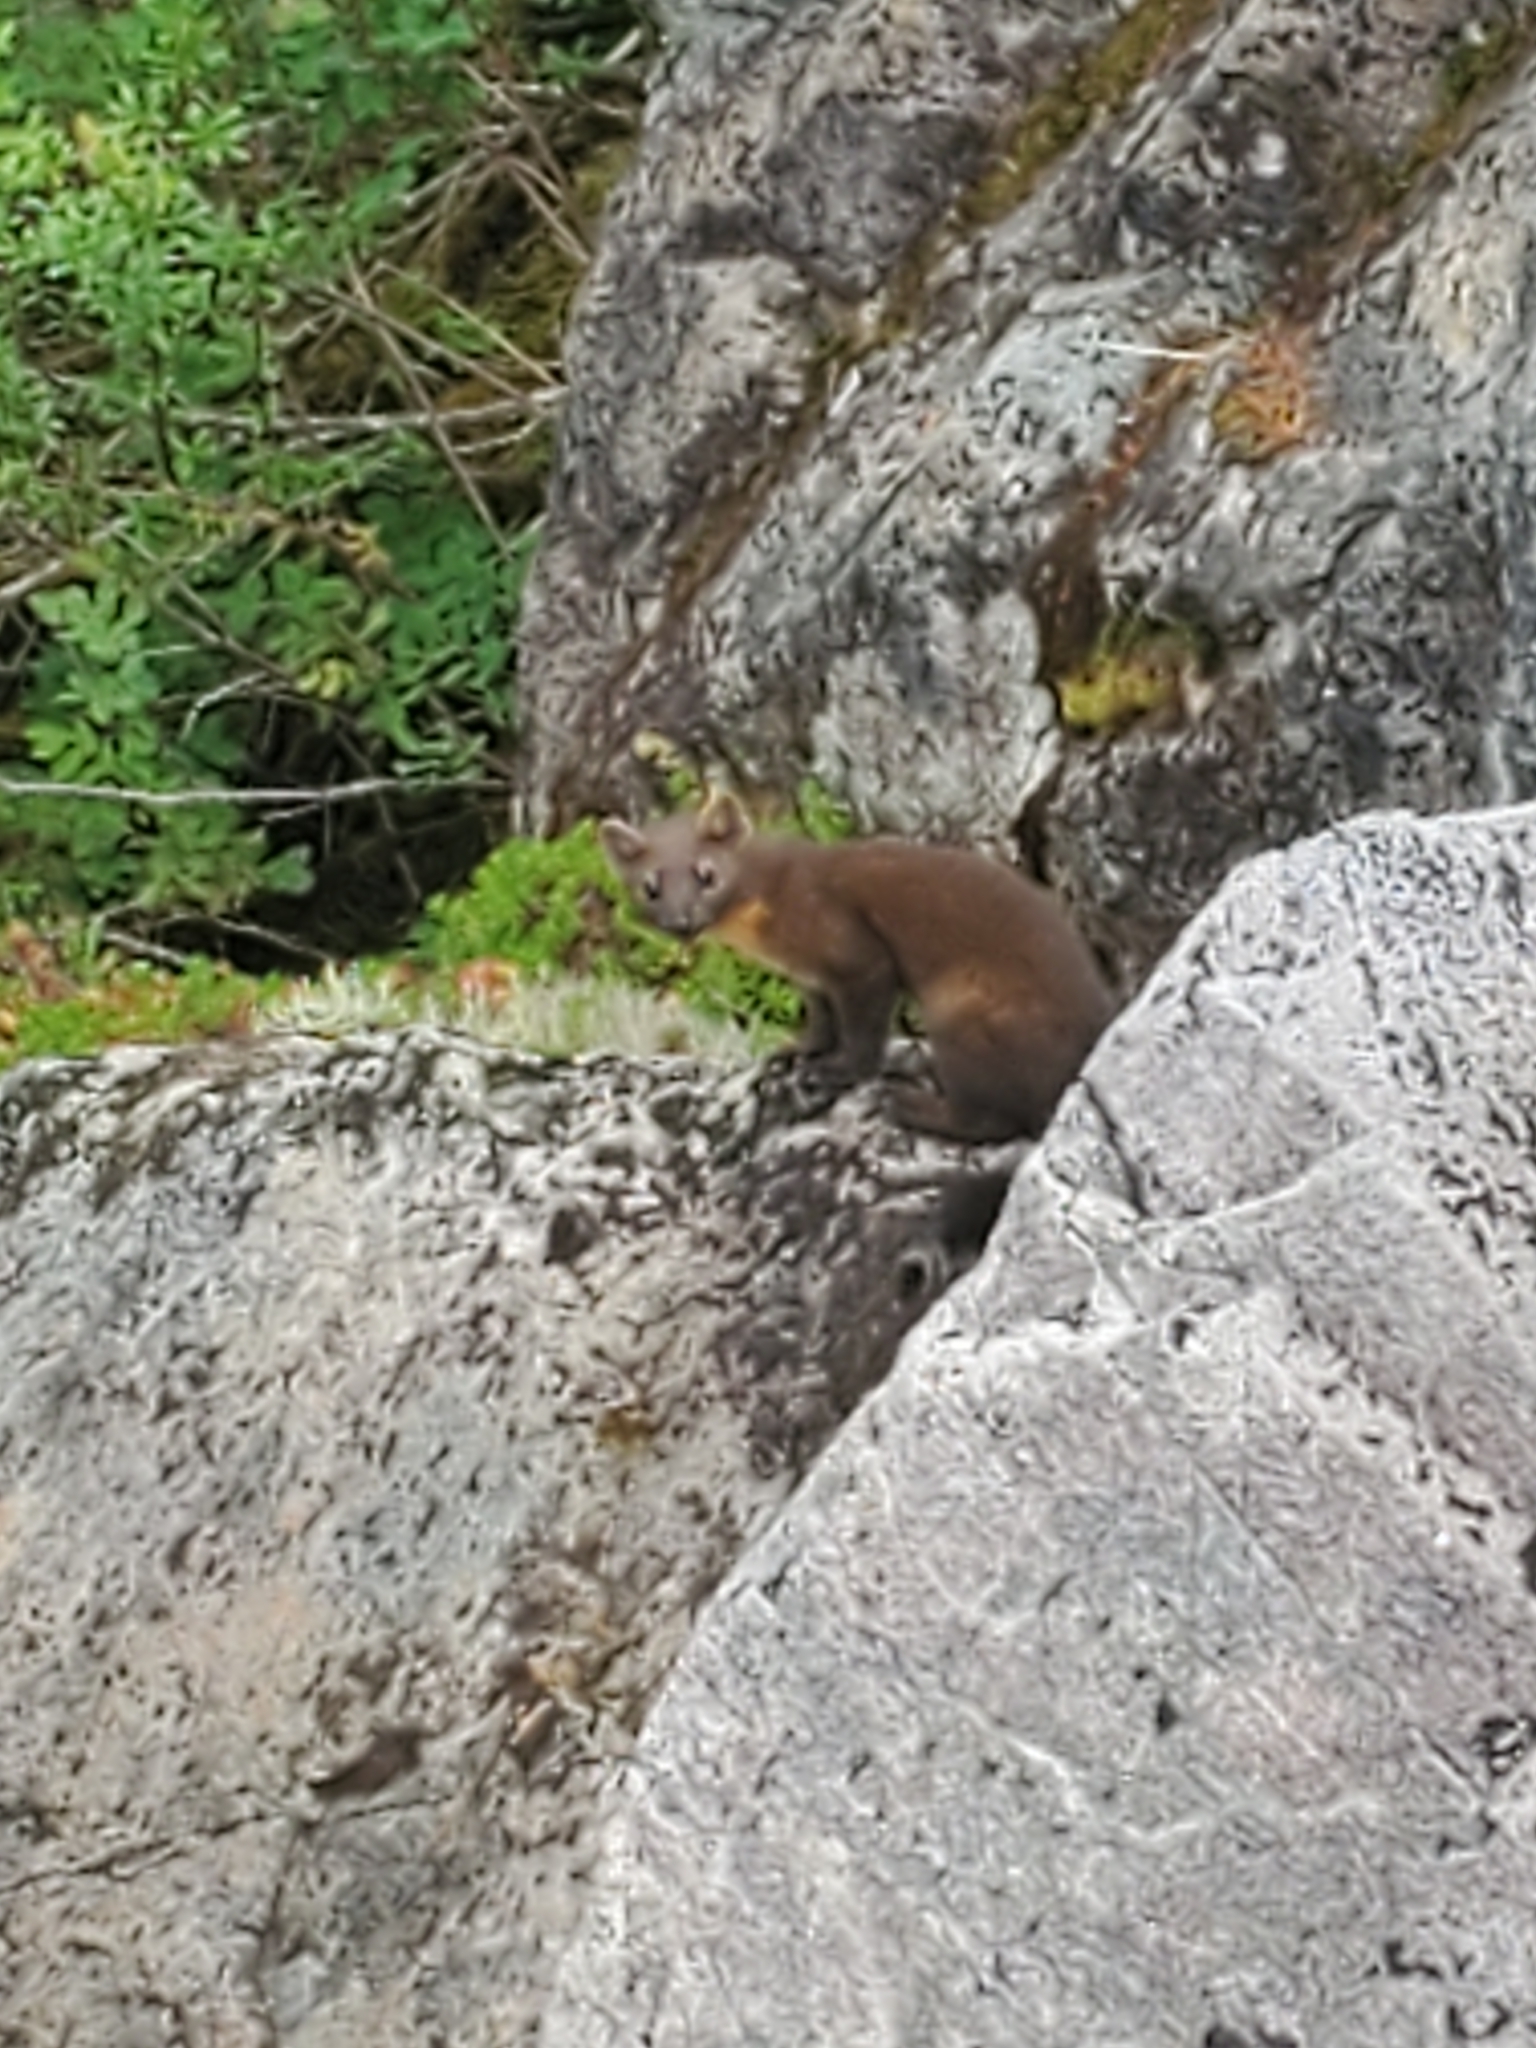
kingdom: Animalia
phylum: Chordata
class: Mammalia
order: Carnivora
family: Mustelidae
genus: Martes
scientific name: Martes caurina
